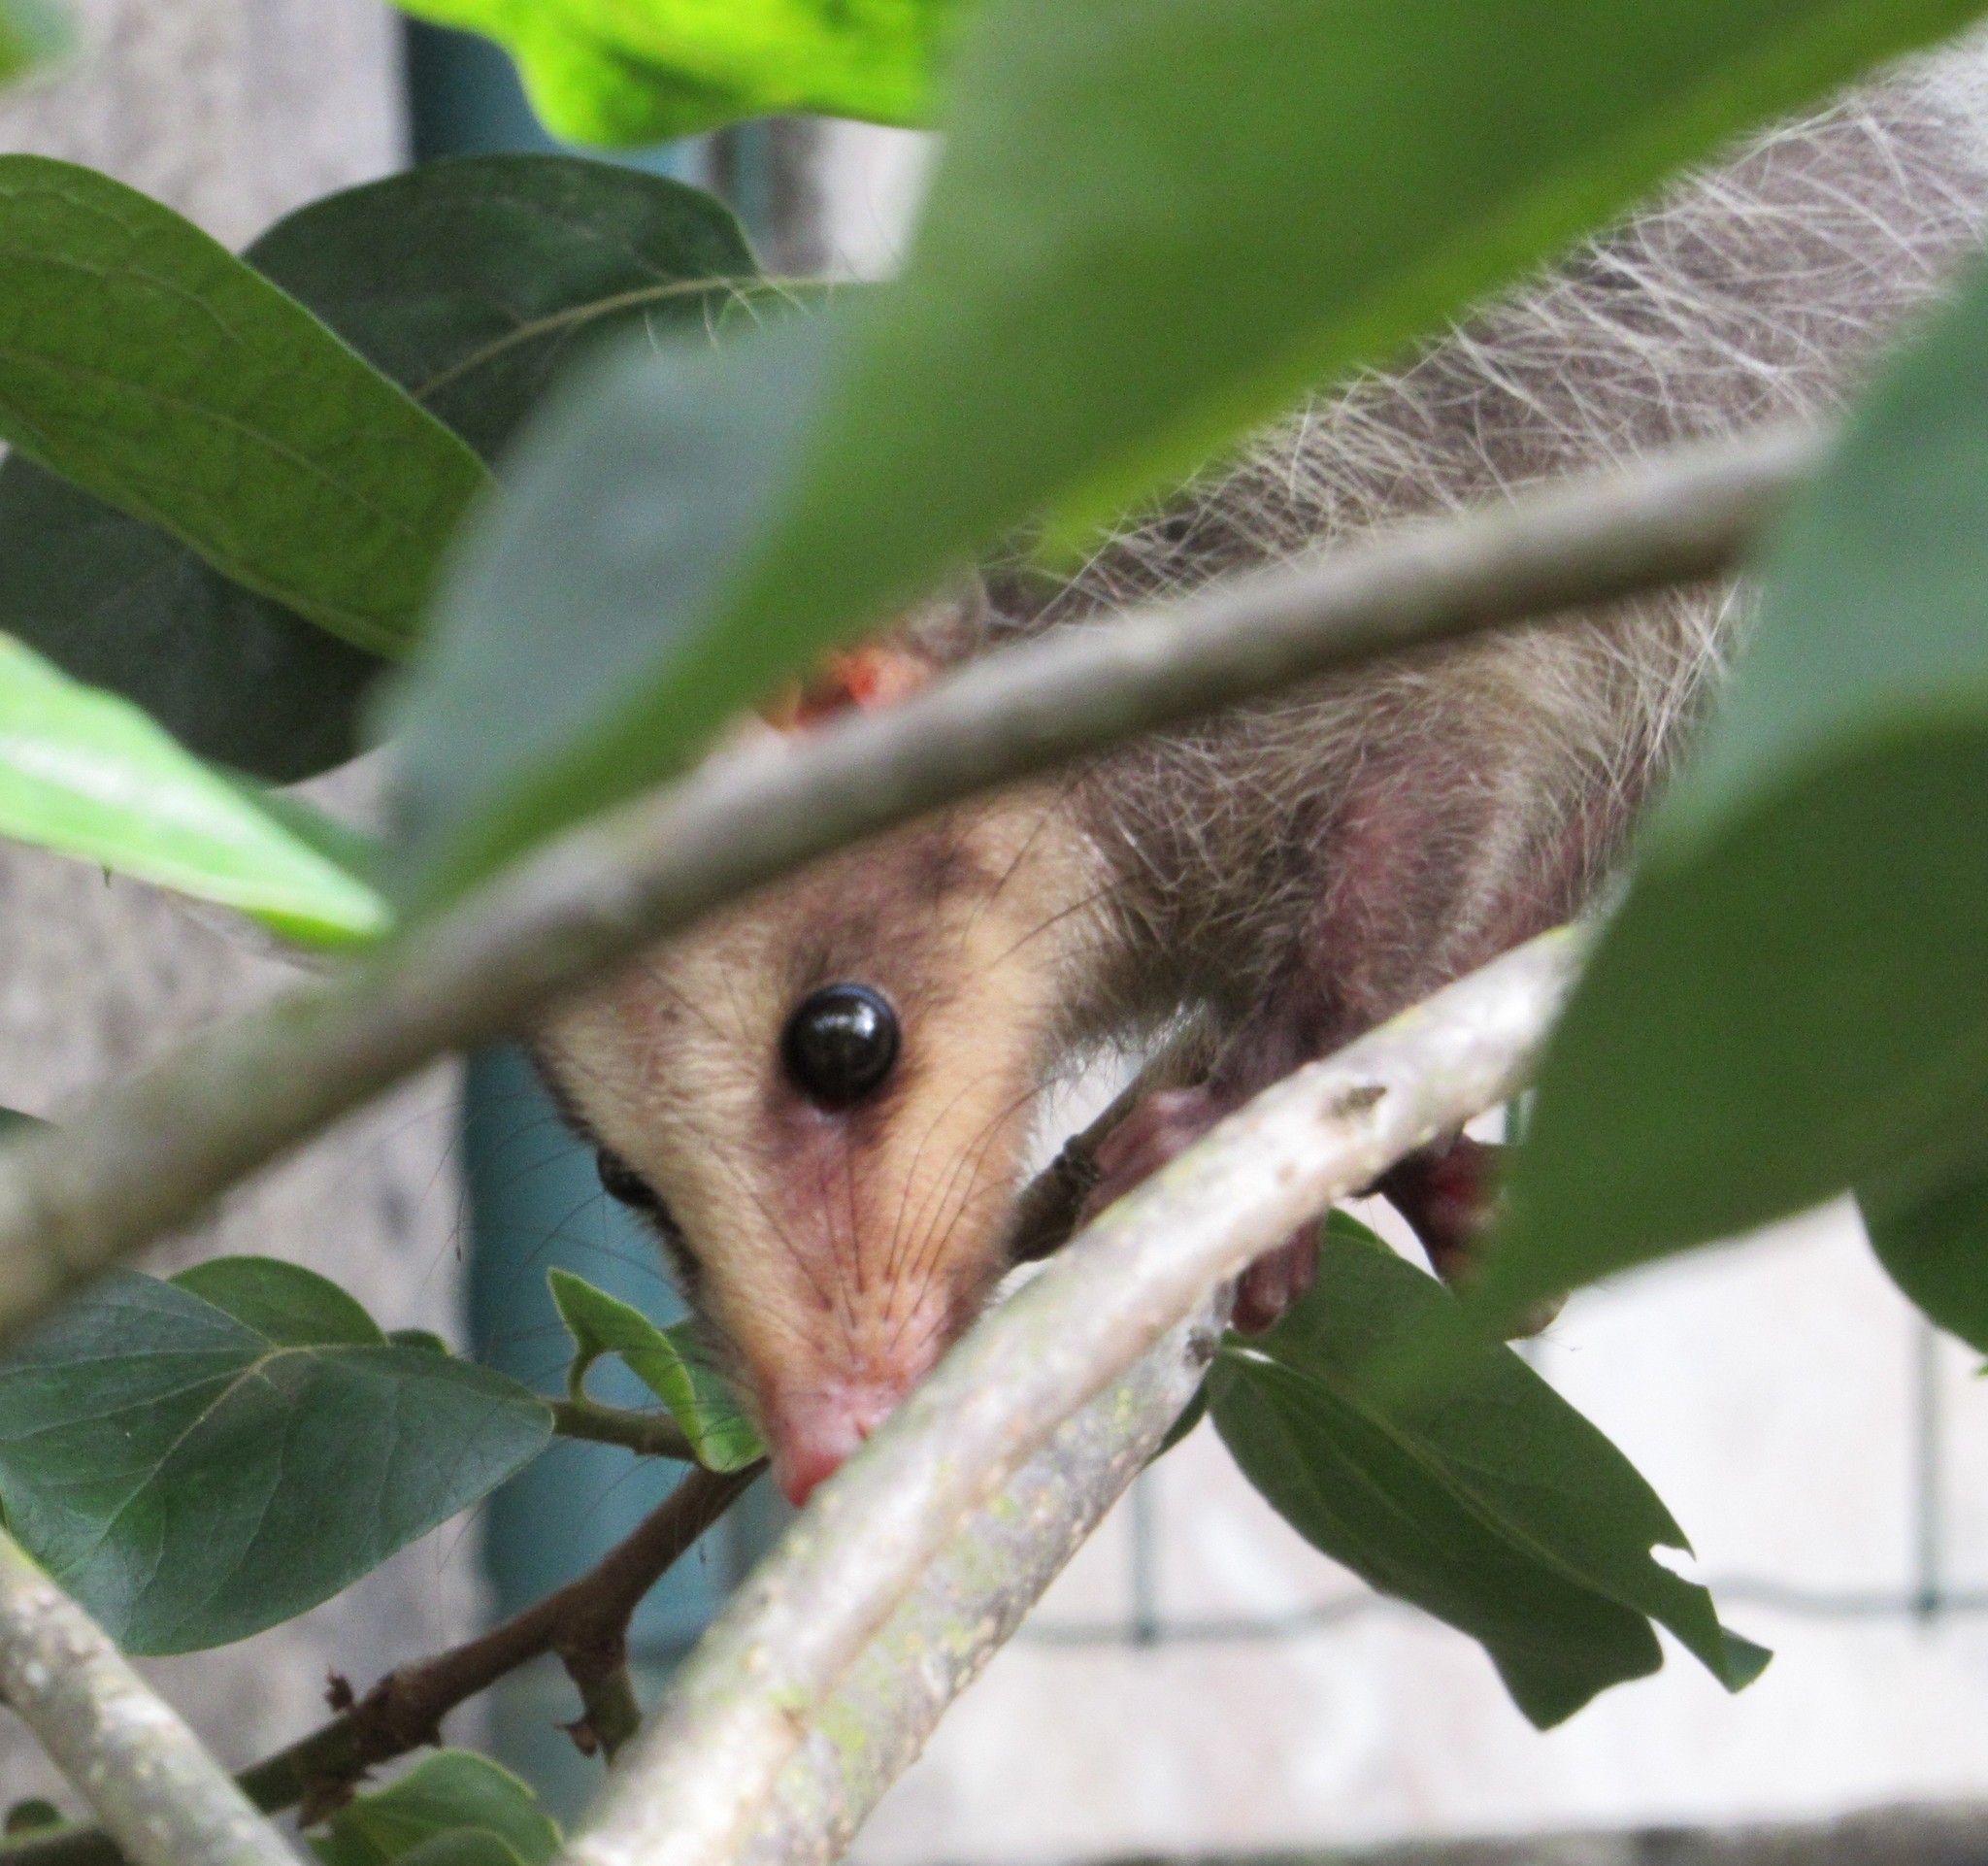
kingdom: Animalia
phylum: Chordata
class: Mammalia
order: Didelphimorphia
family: Didelphidae
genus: Didelphis
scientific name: Didelphis aurita
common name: Big-eared opossum
